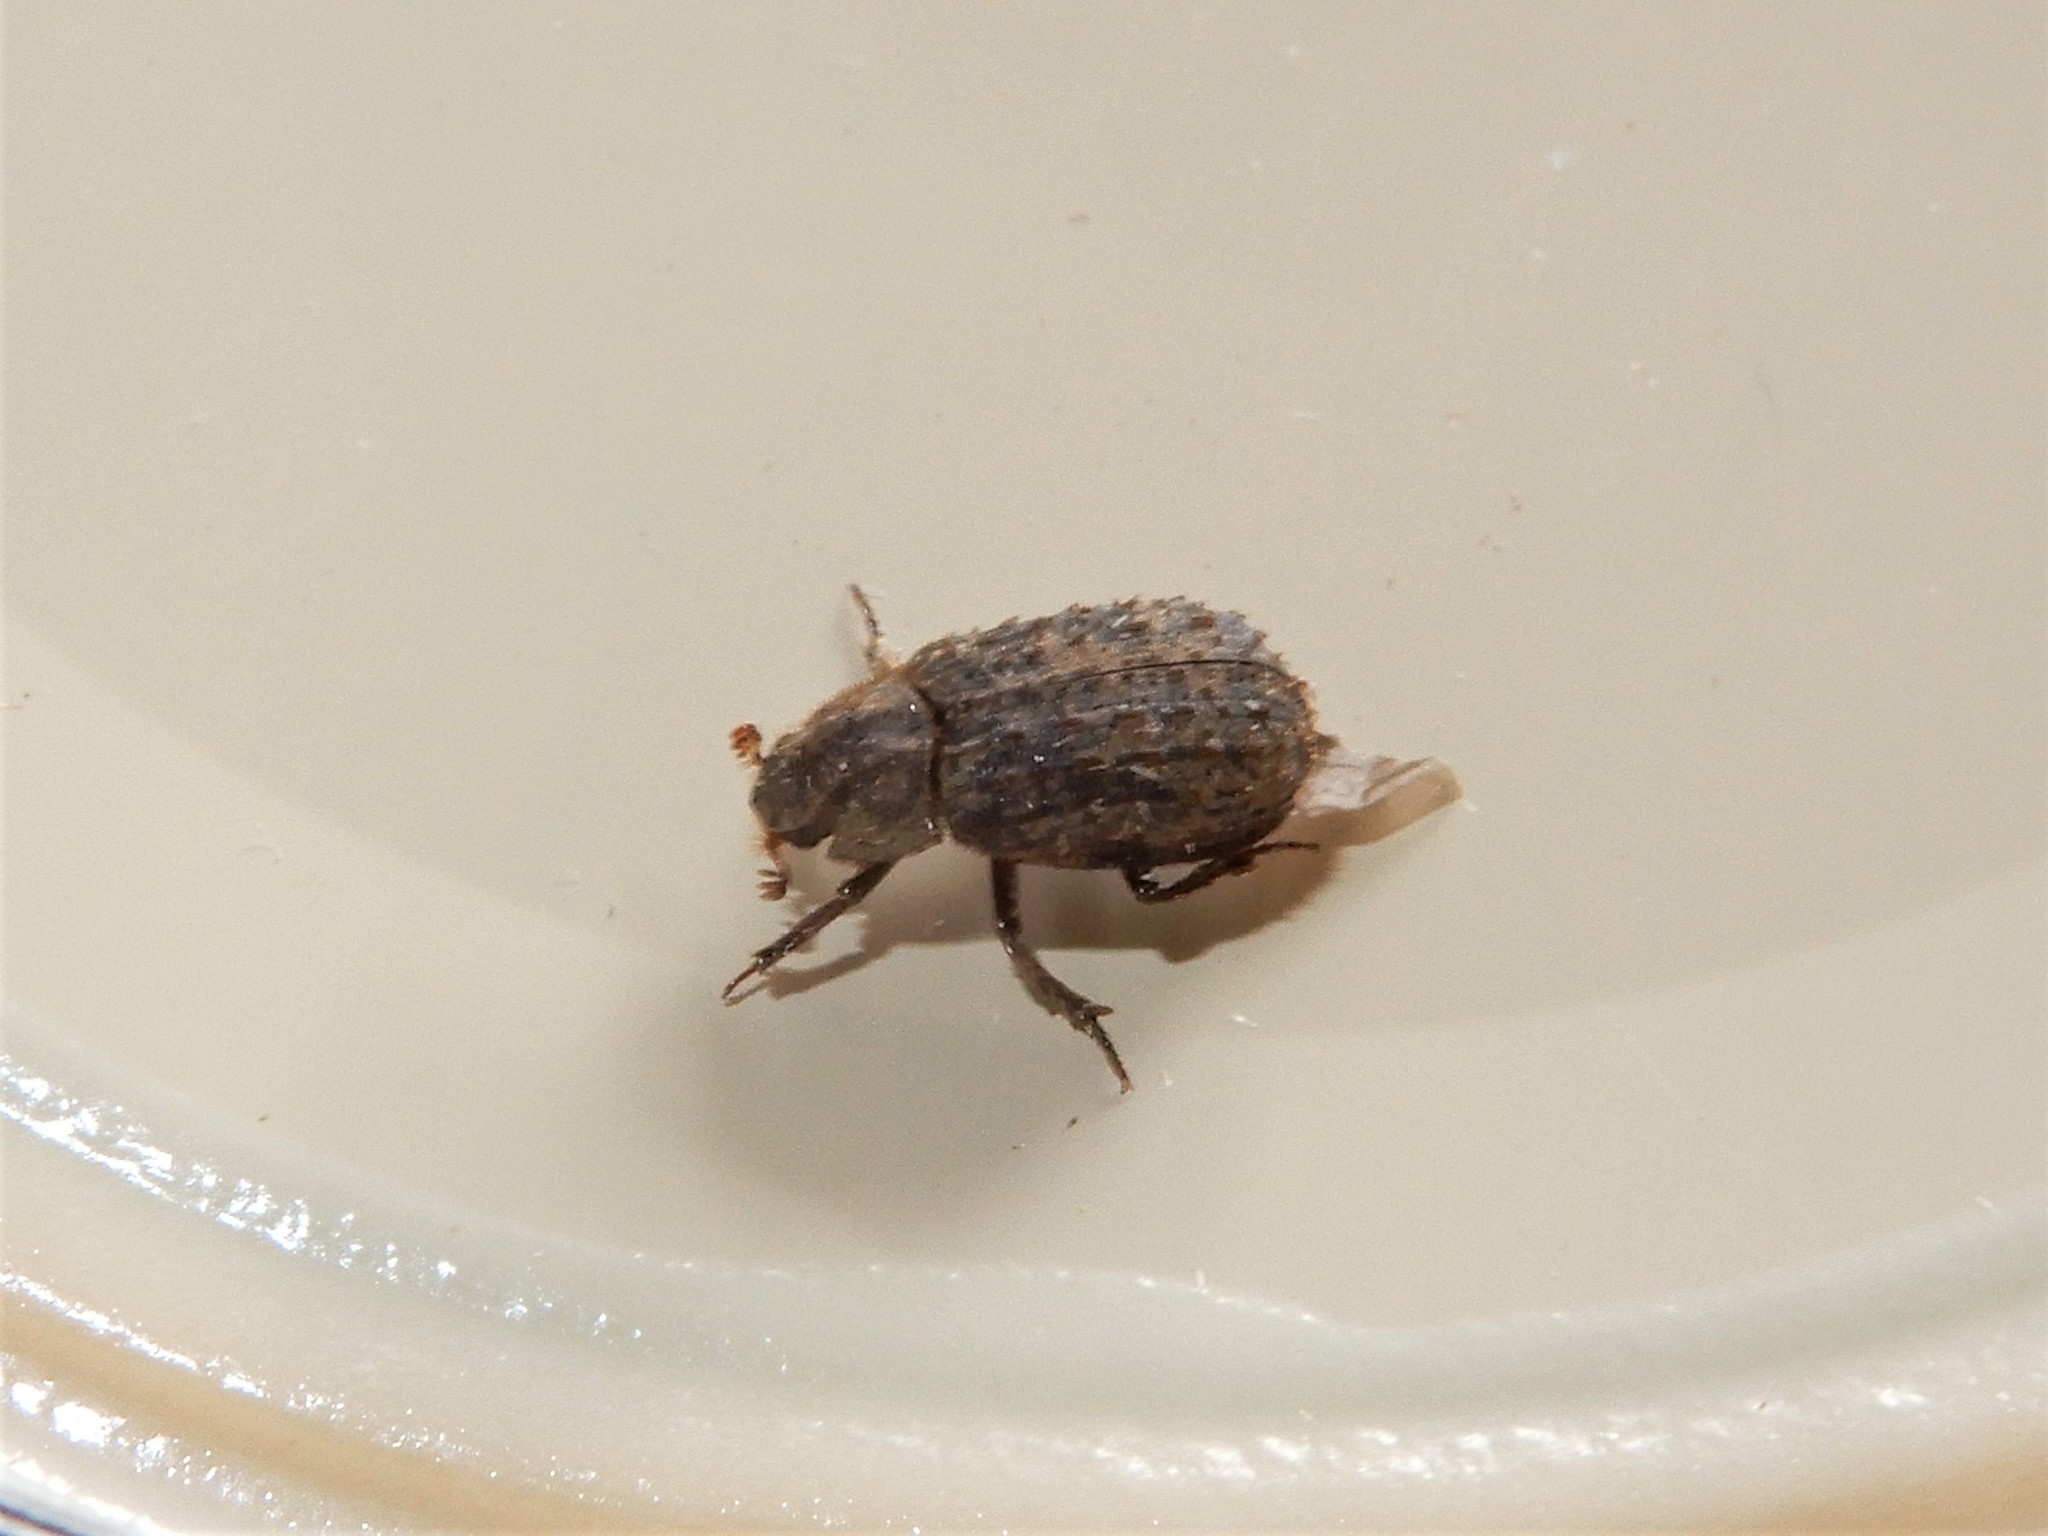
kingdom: Animalia
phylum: Arthropoda
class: Insecta
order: Coleoptera
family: Trogidae
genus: Trox
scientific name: Trox scaber
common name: Hide beetle
